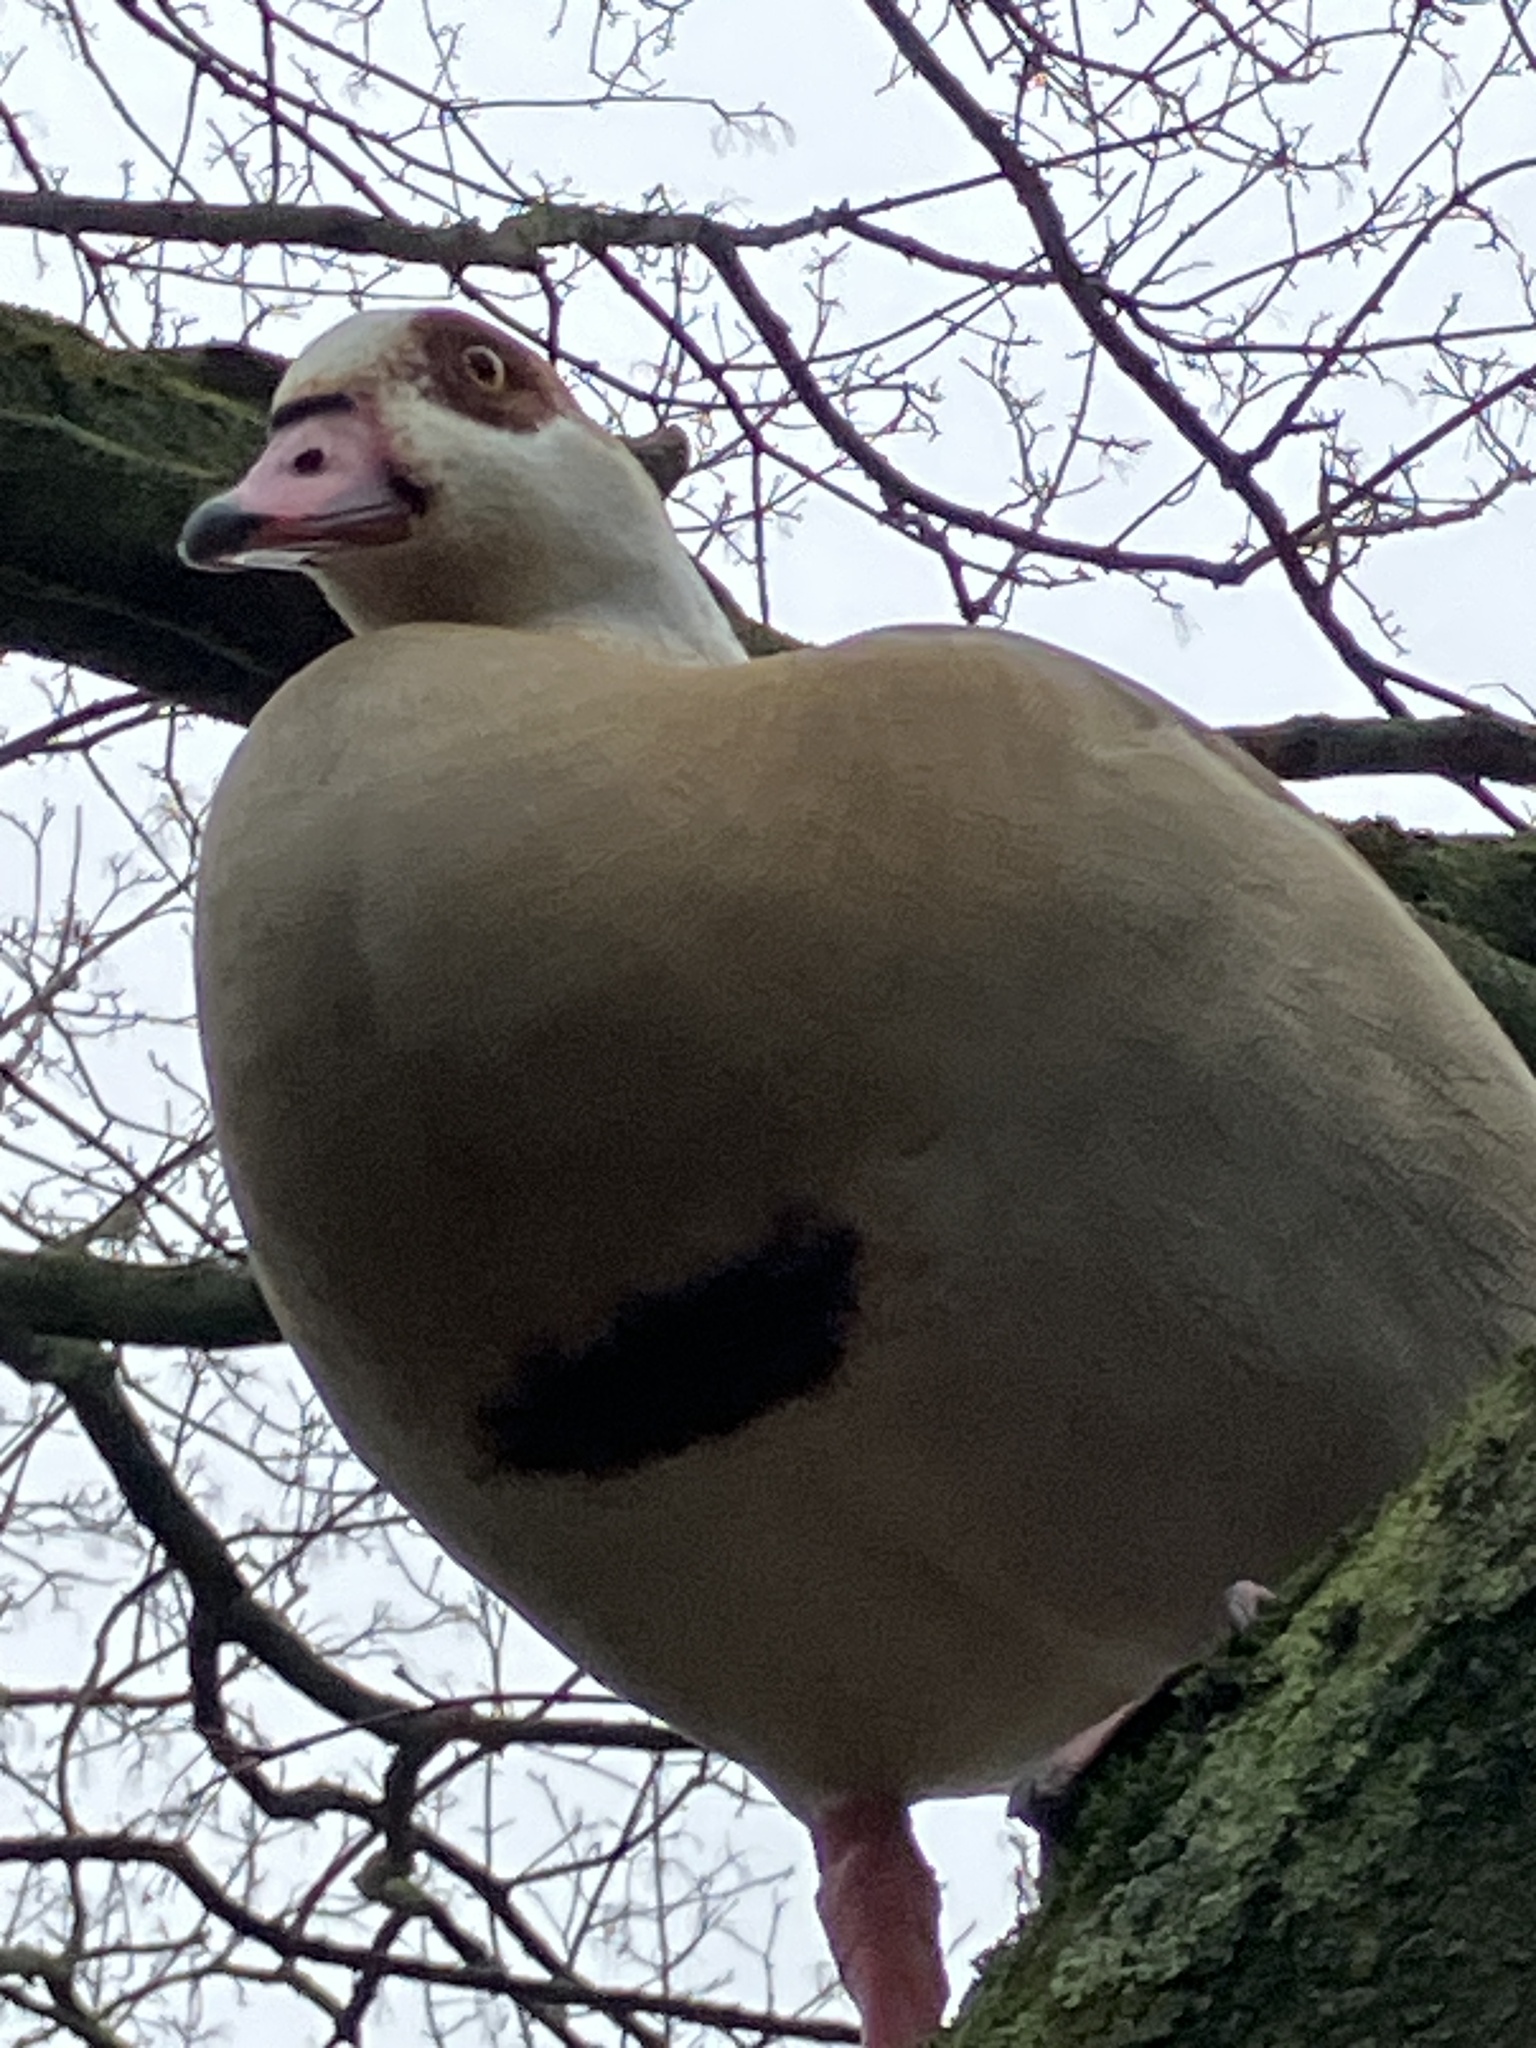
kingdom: Animalia
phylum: Chordata
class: Aves
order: Anseriformes
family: Anatidae
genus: Alopochen
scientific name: Alopochen aegyptiaca
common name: Egyptian goose
